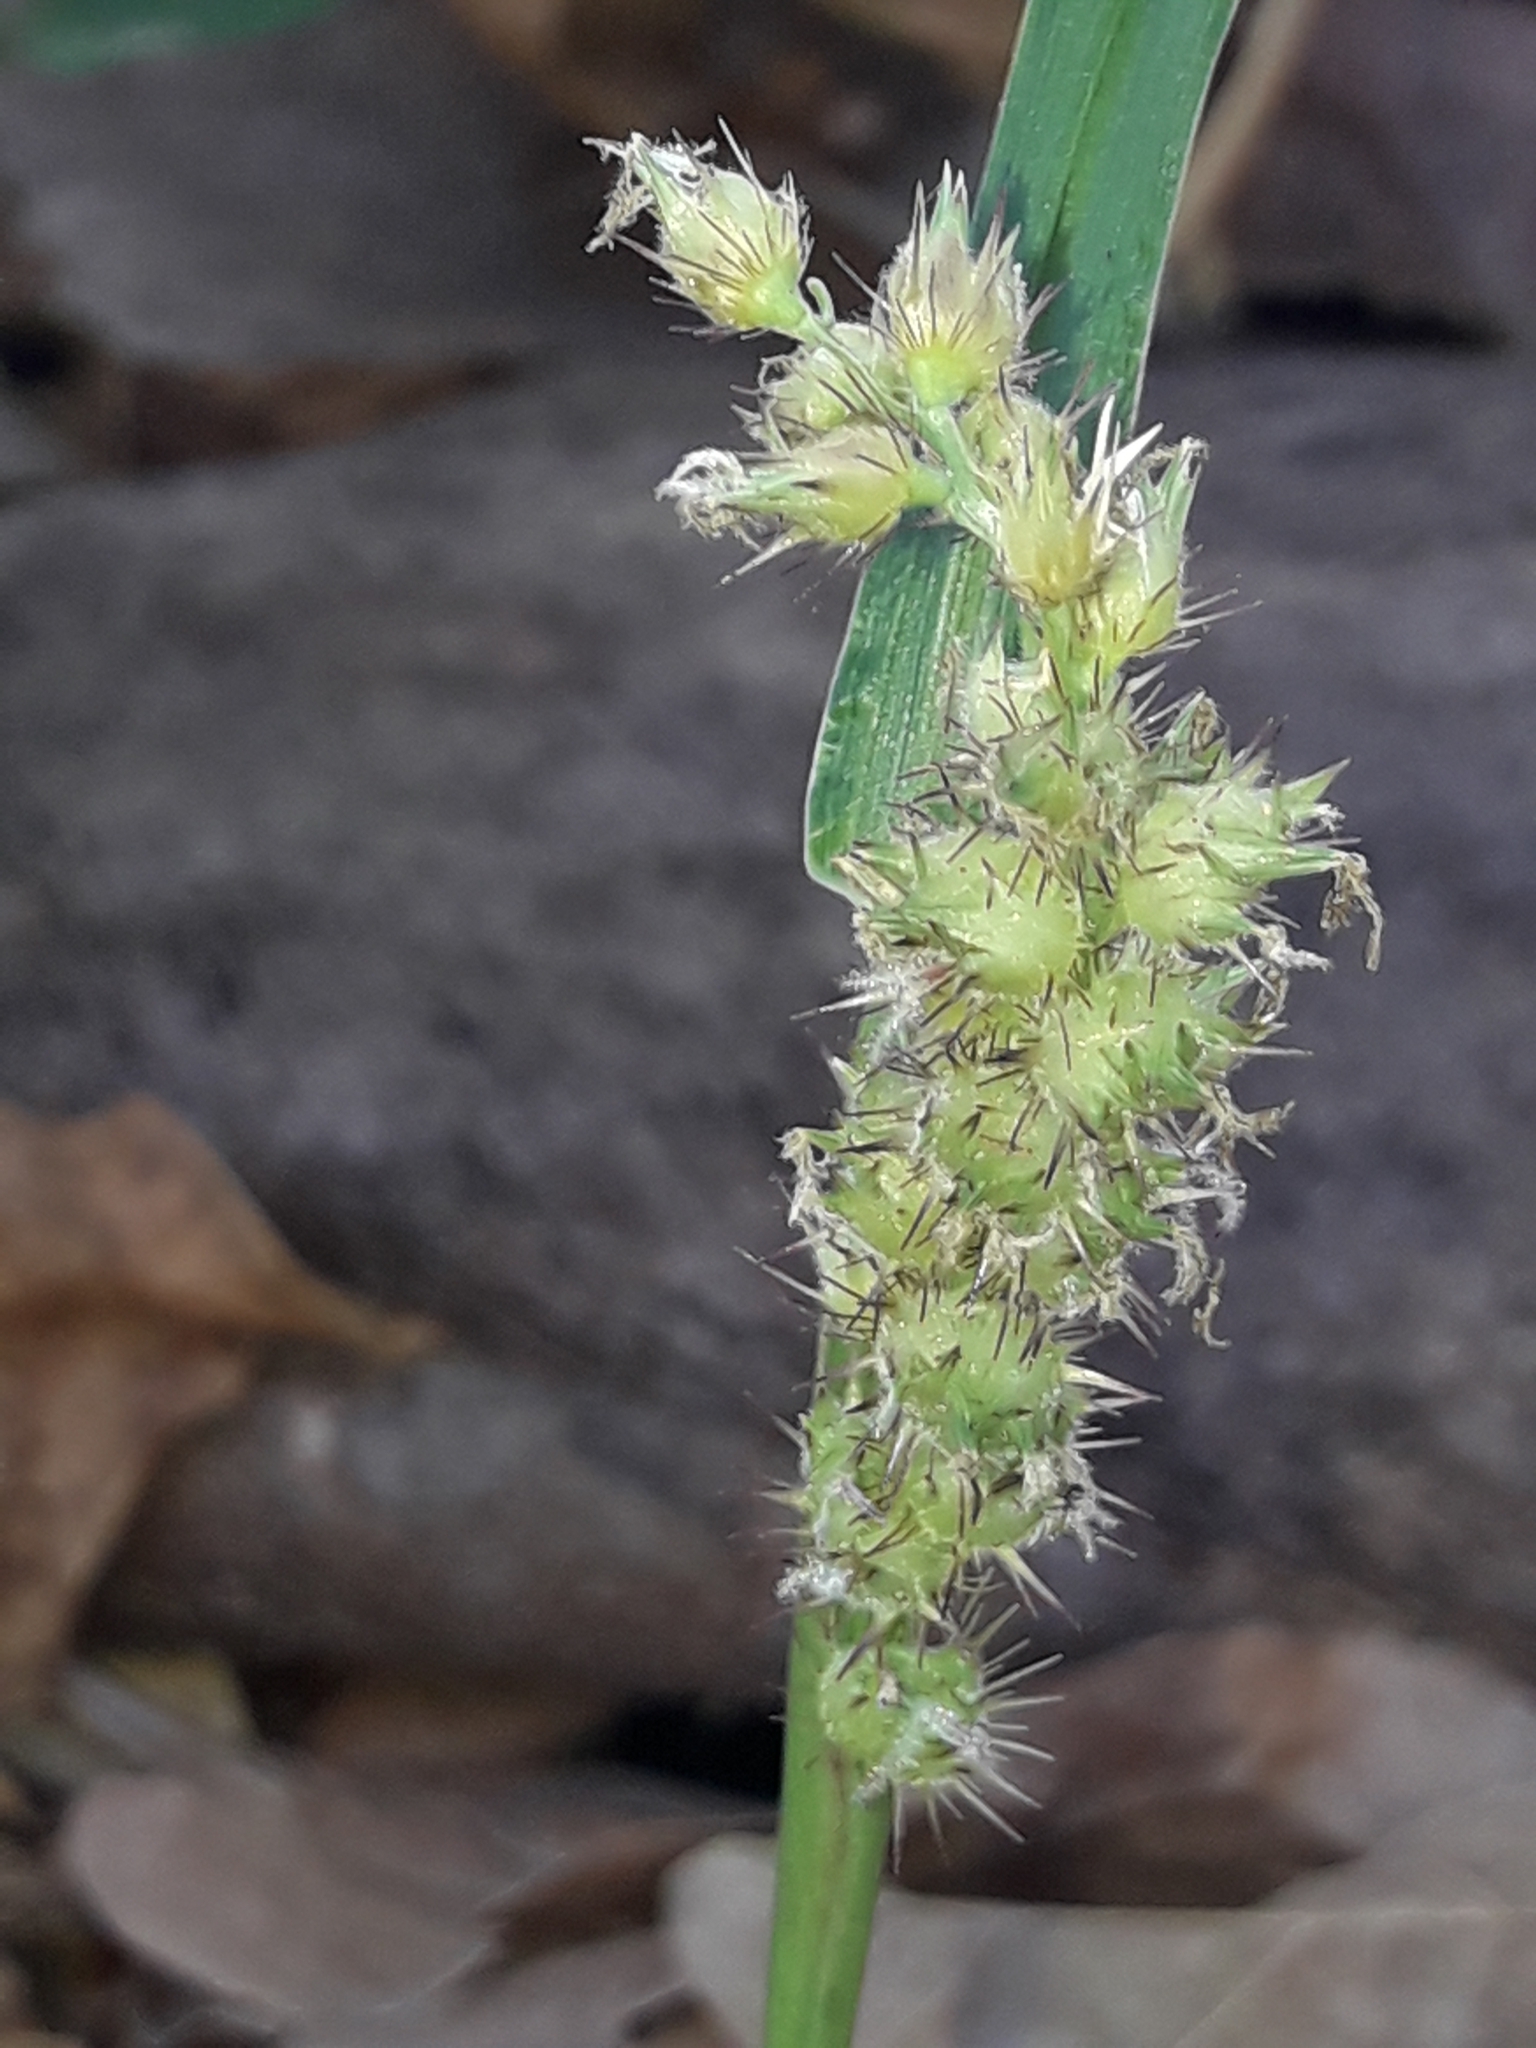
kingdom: Plantae
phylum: Tracheophyta
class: Liliopsida
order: Poales
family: Poaceae
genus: Cenchrus
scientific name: Cenchrus echinatus
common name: Southern sandbur
